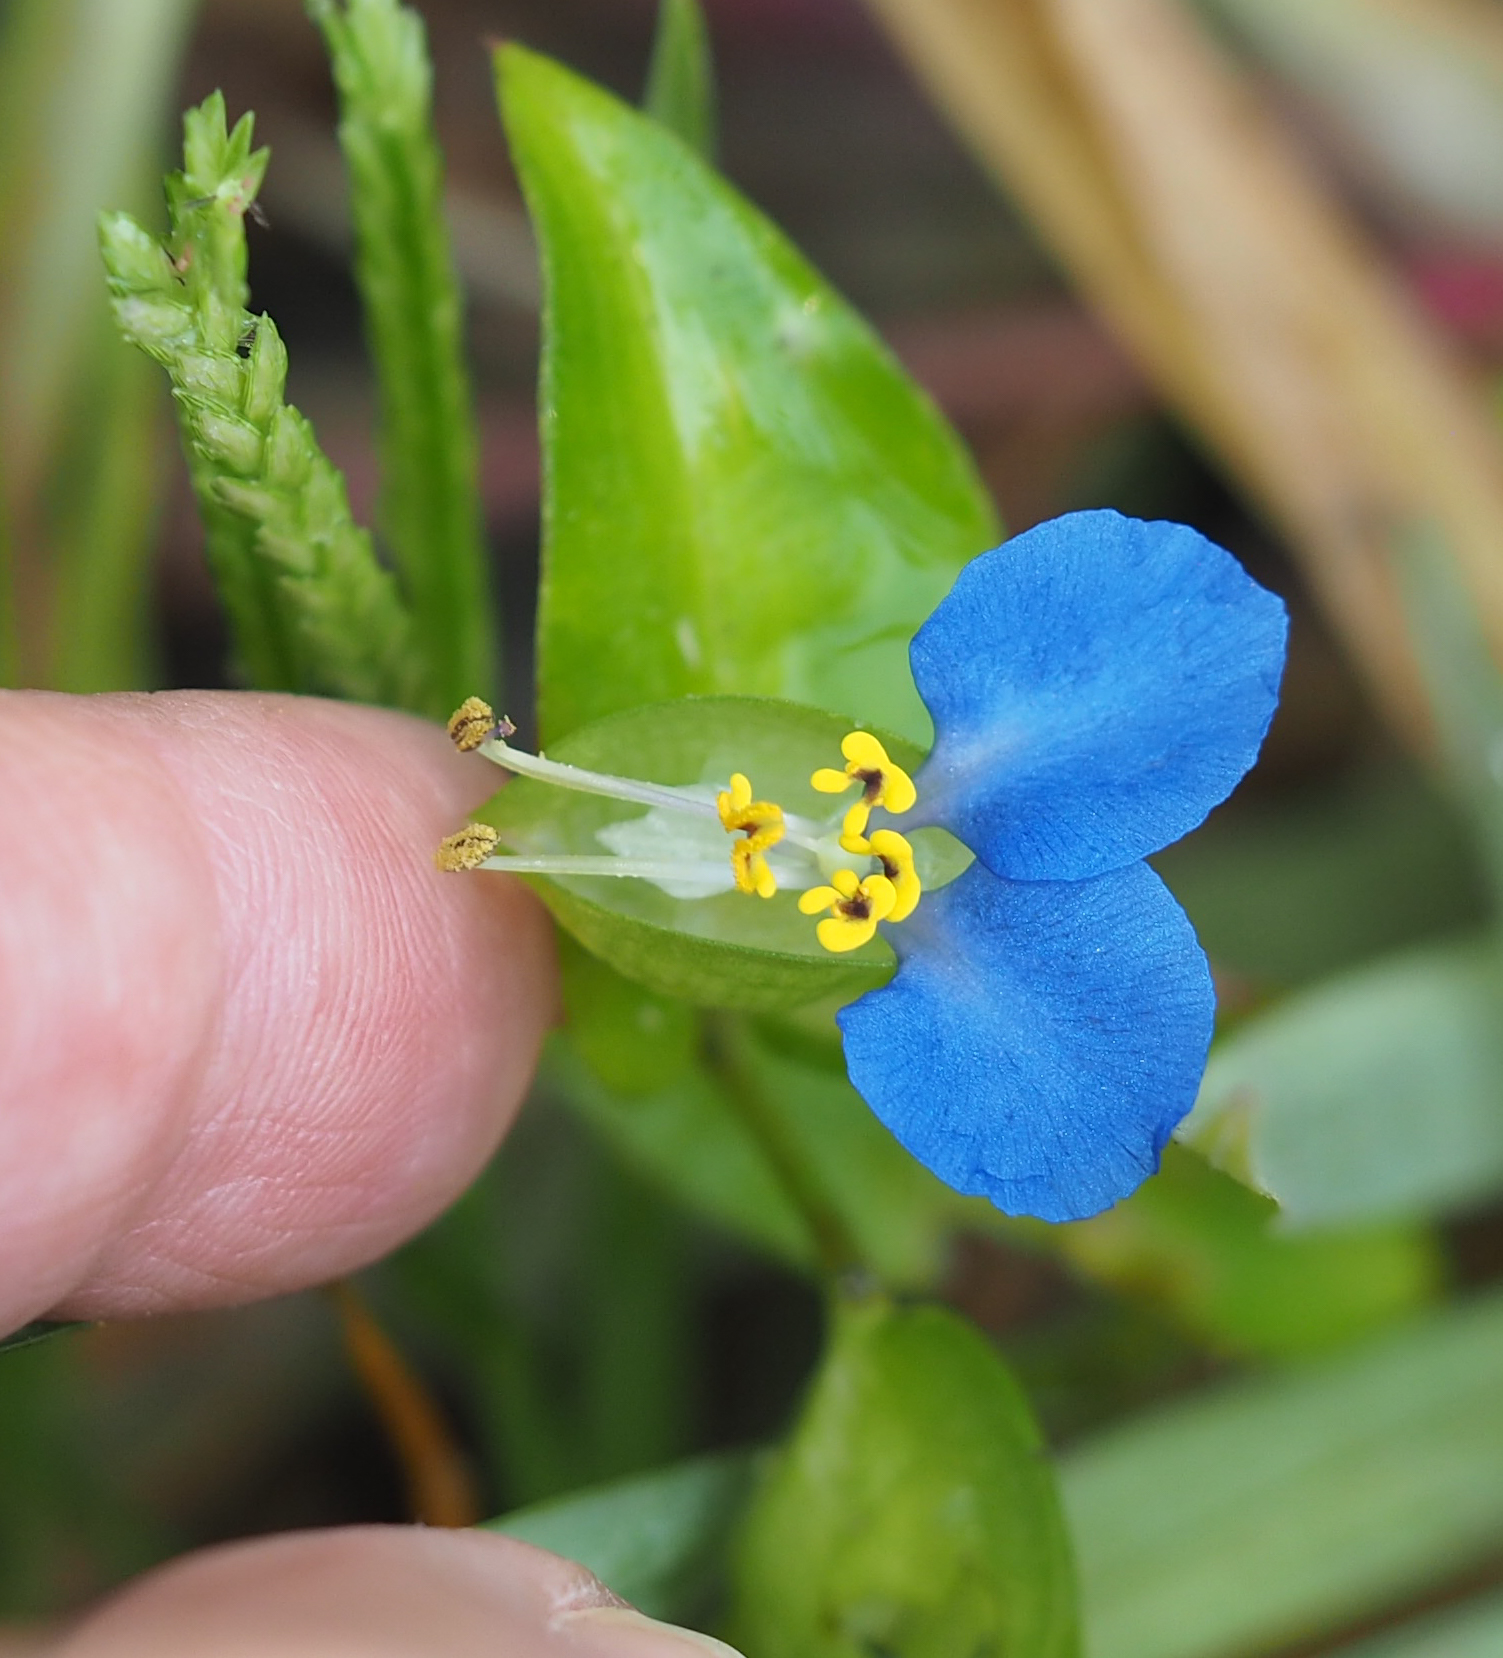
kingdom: Plantae
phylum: Tracheophyta
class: Liliopsida
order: Commelinales
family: Commelinaceae
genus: Commelina
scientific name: Commelina communis
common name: Asiatic dayflower
